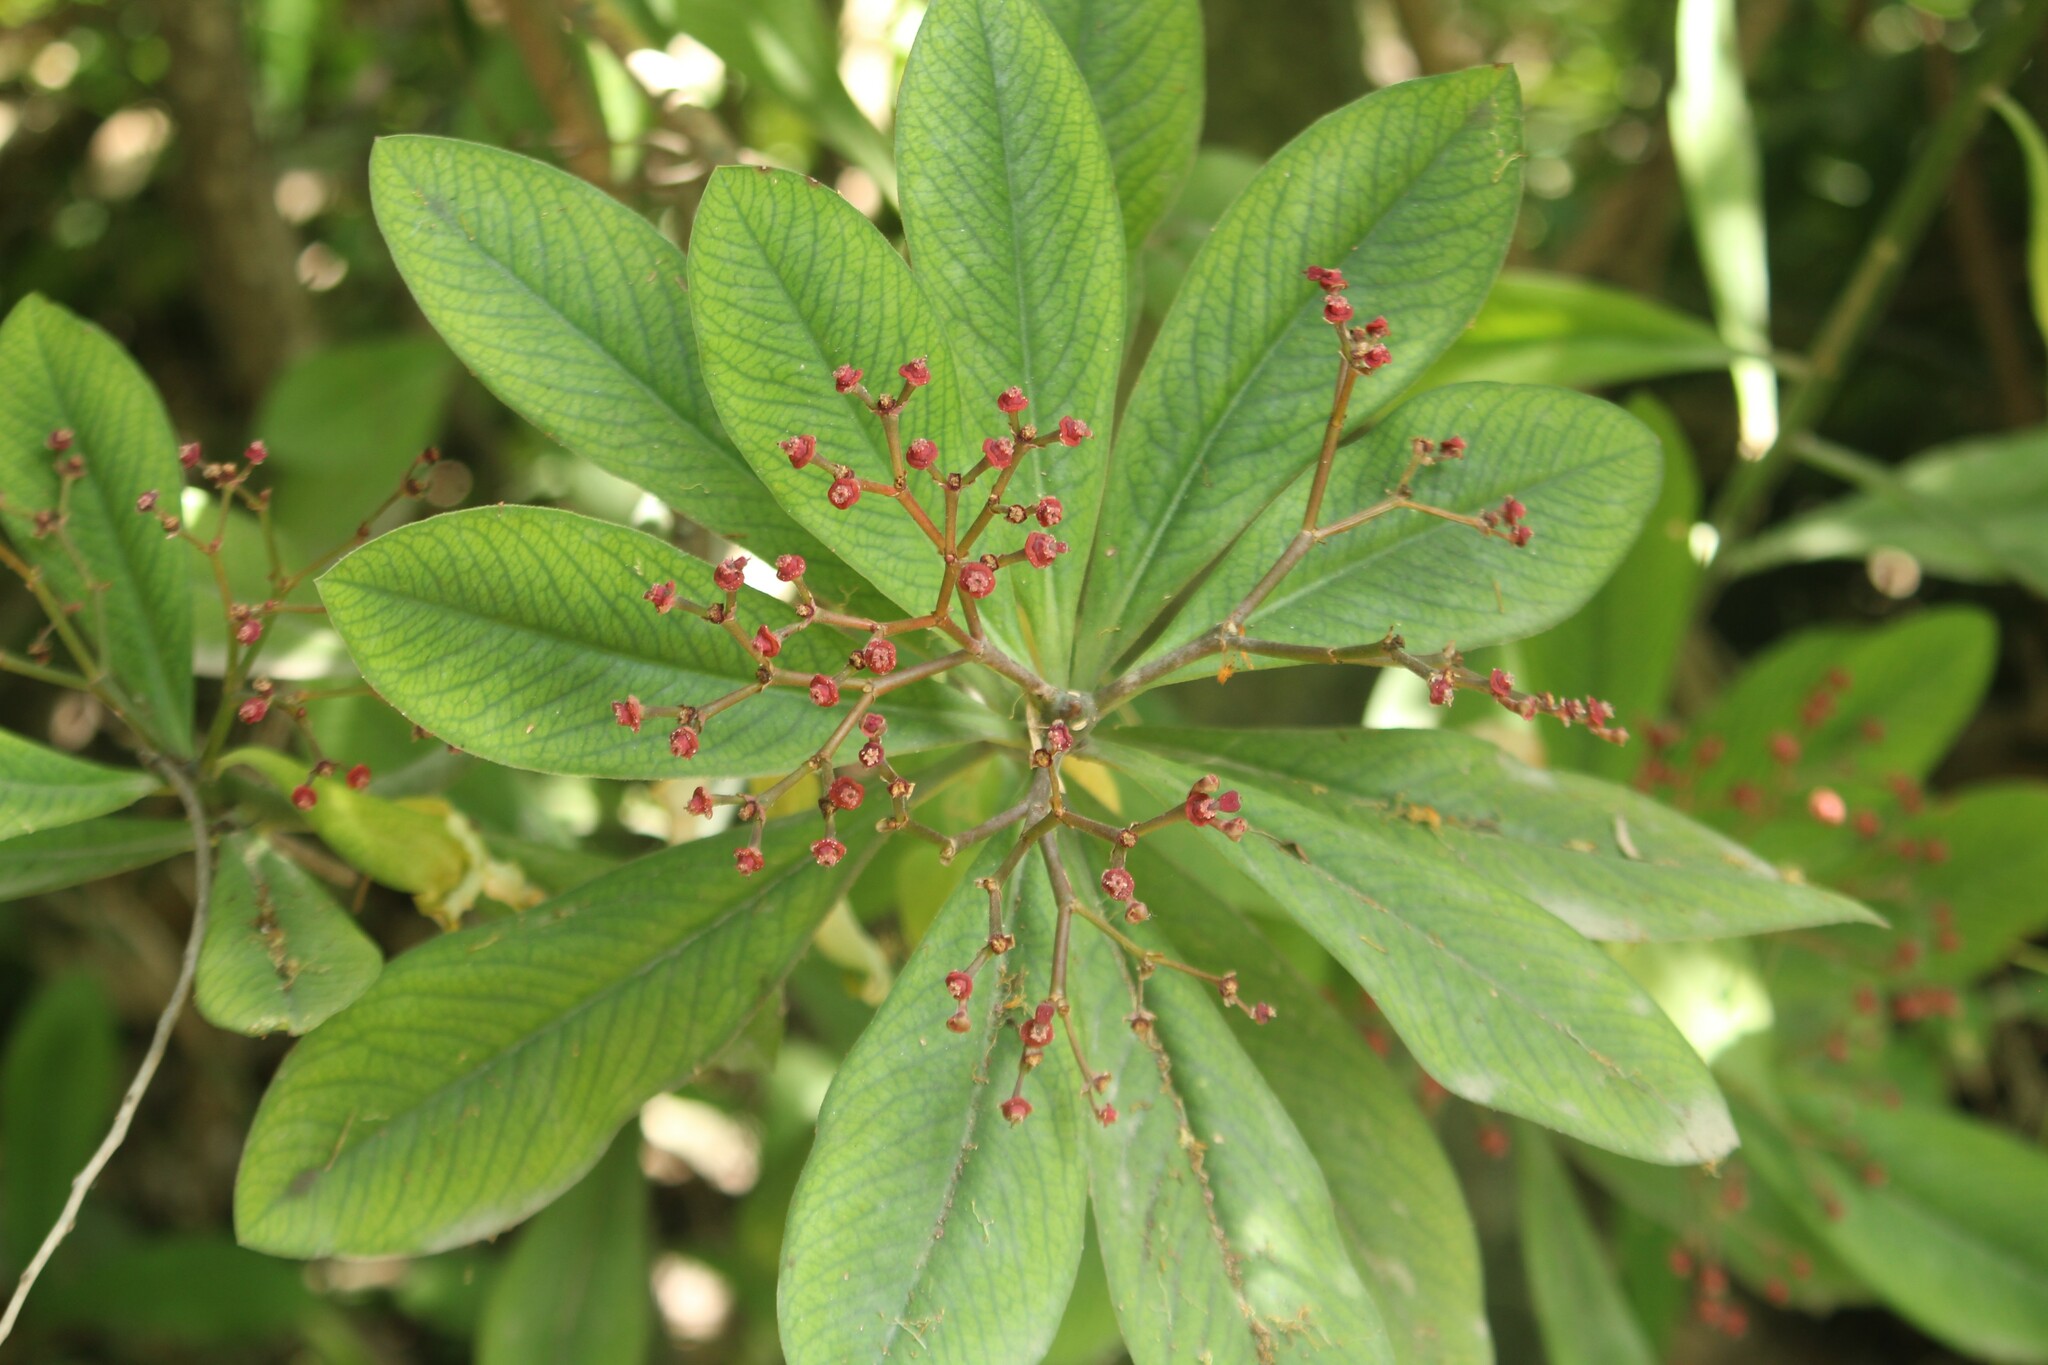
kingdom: Plantae
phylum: Tracheophyta
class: Magnoliopsida
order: Malpighiales
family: Euphorbiaceae
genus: Euphorbia
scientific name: Euphorbia umbellata
